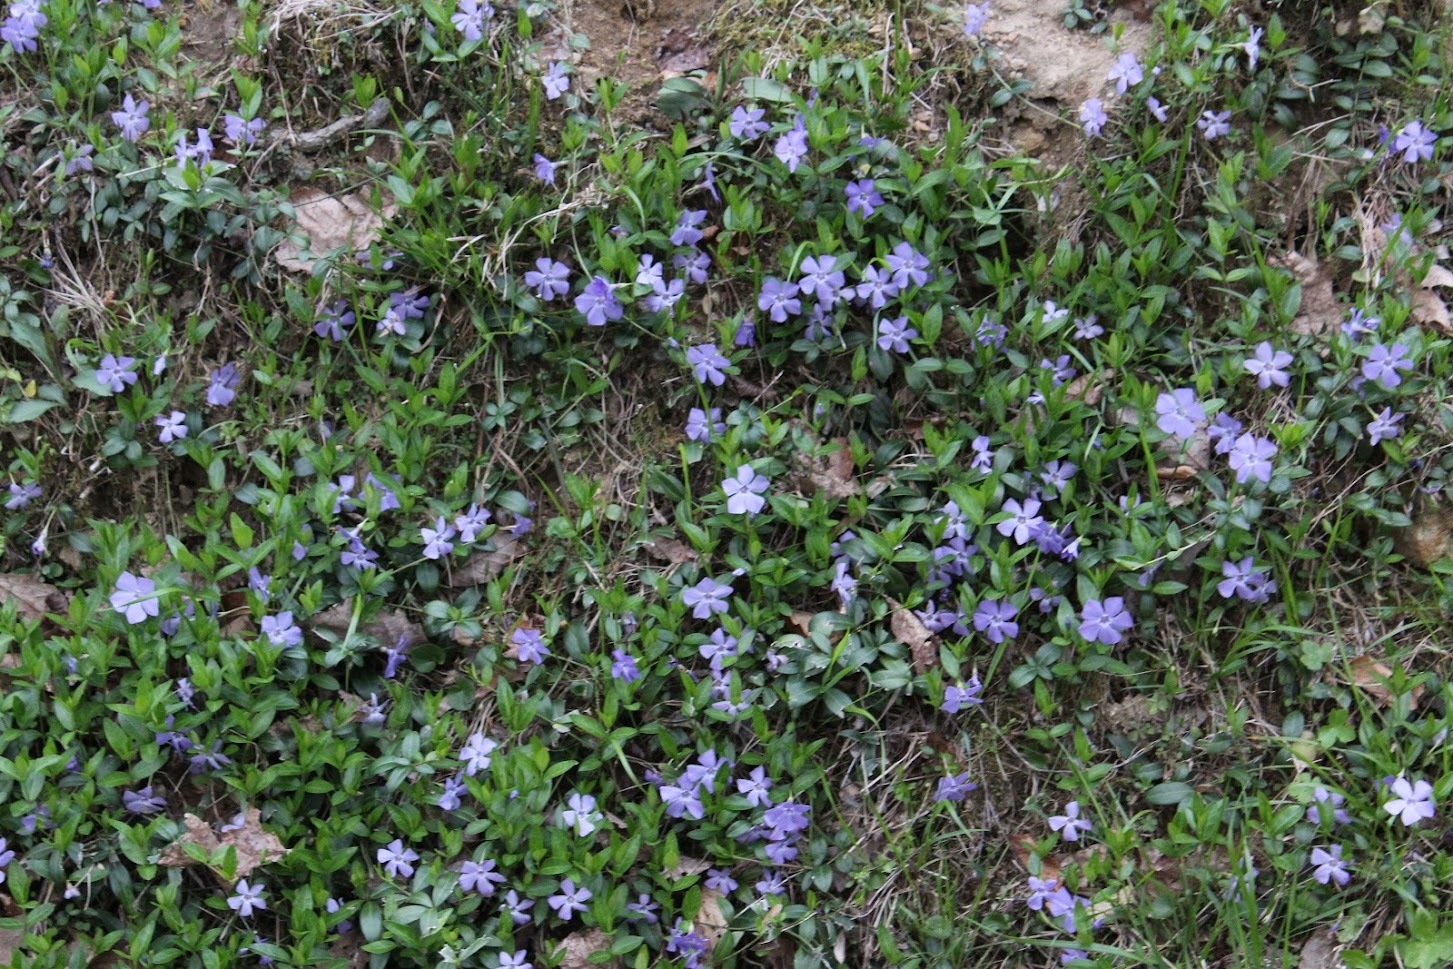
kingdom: Plantae
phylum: Tracheophyta
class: Magnoliopsida
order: Gentianales
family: Apocynaceae
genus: Vinca
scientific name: Vinca minor
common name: Lesser periwinkle
